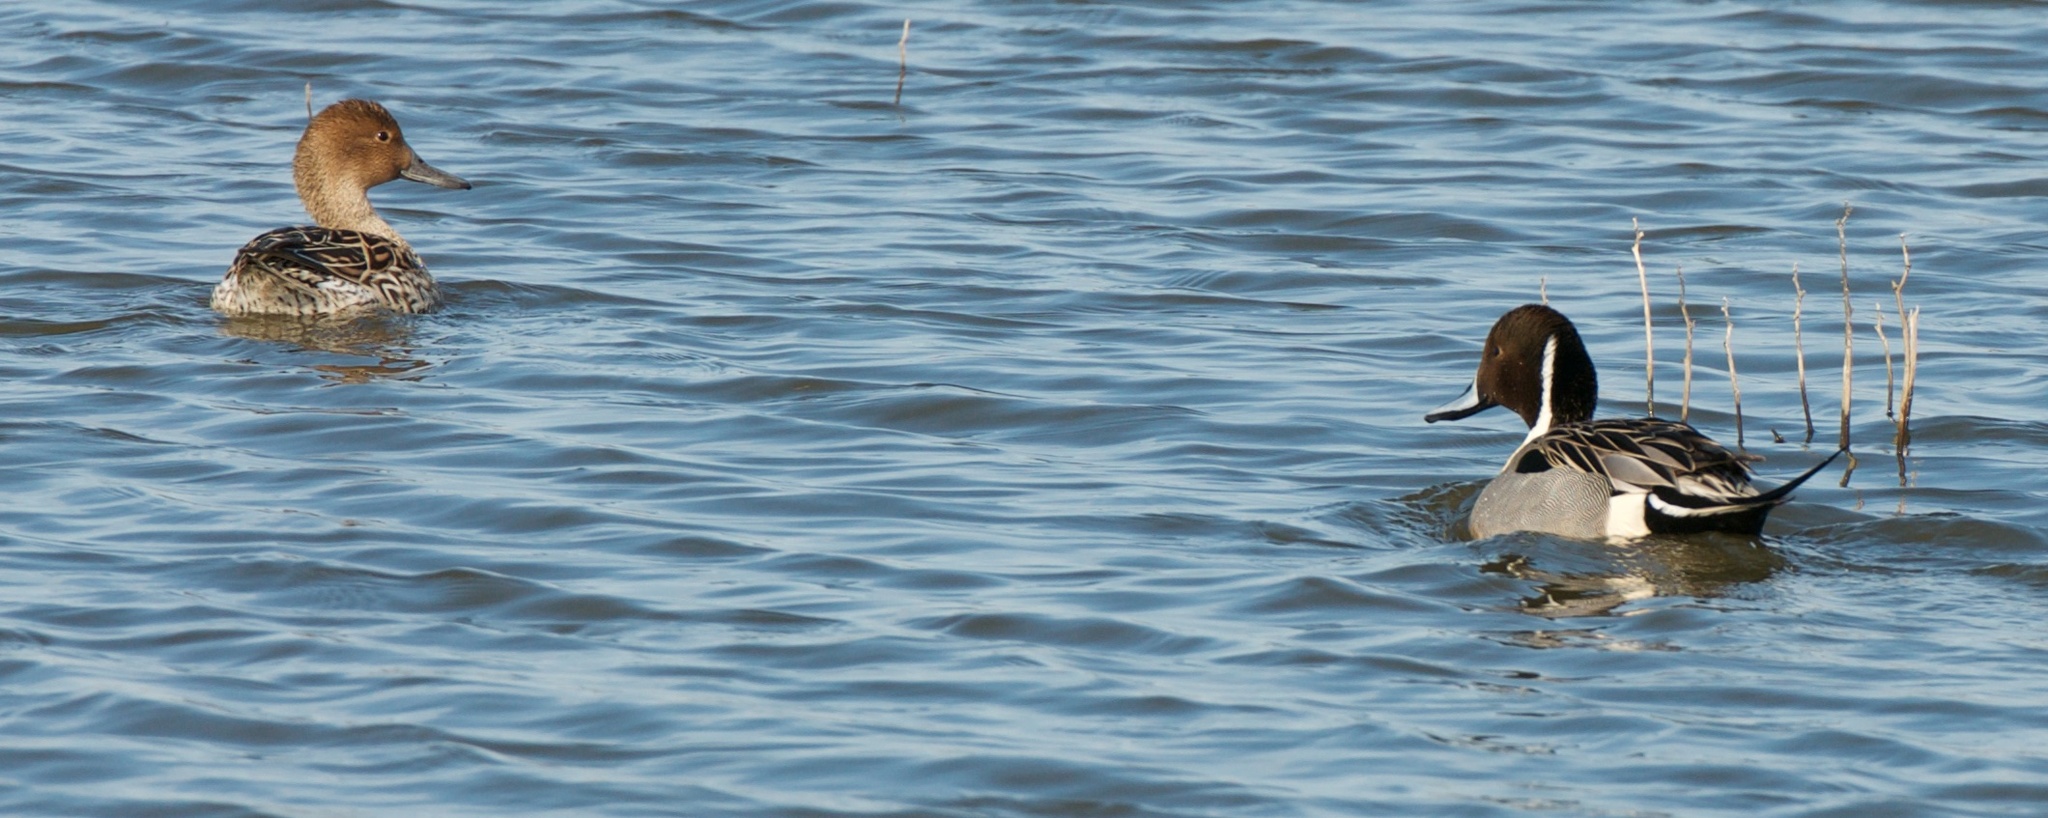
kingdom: Animalia
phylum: Chordata
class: Aves
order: Anseriformes
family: Anatidae
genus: Anas
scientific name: Anas acuta
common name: Northern pintail
